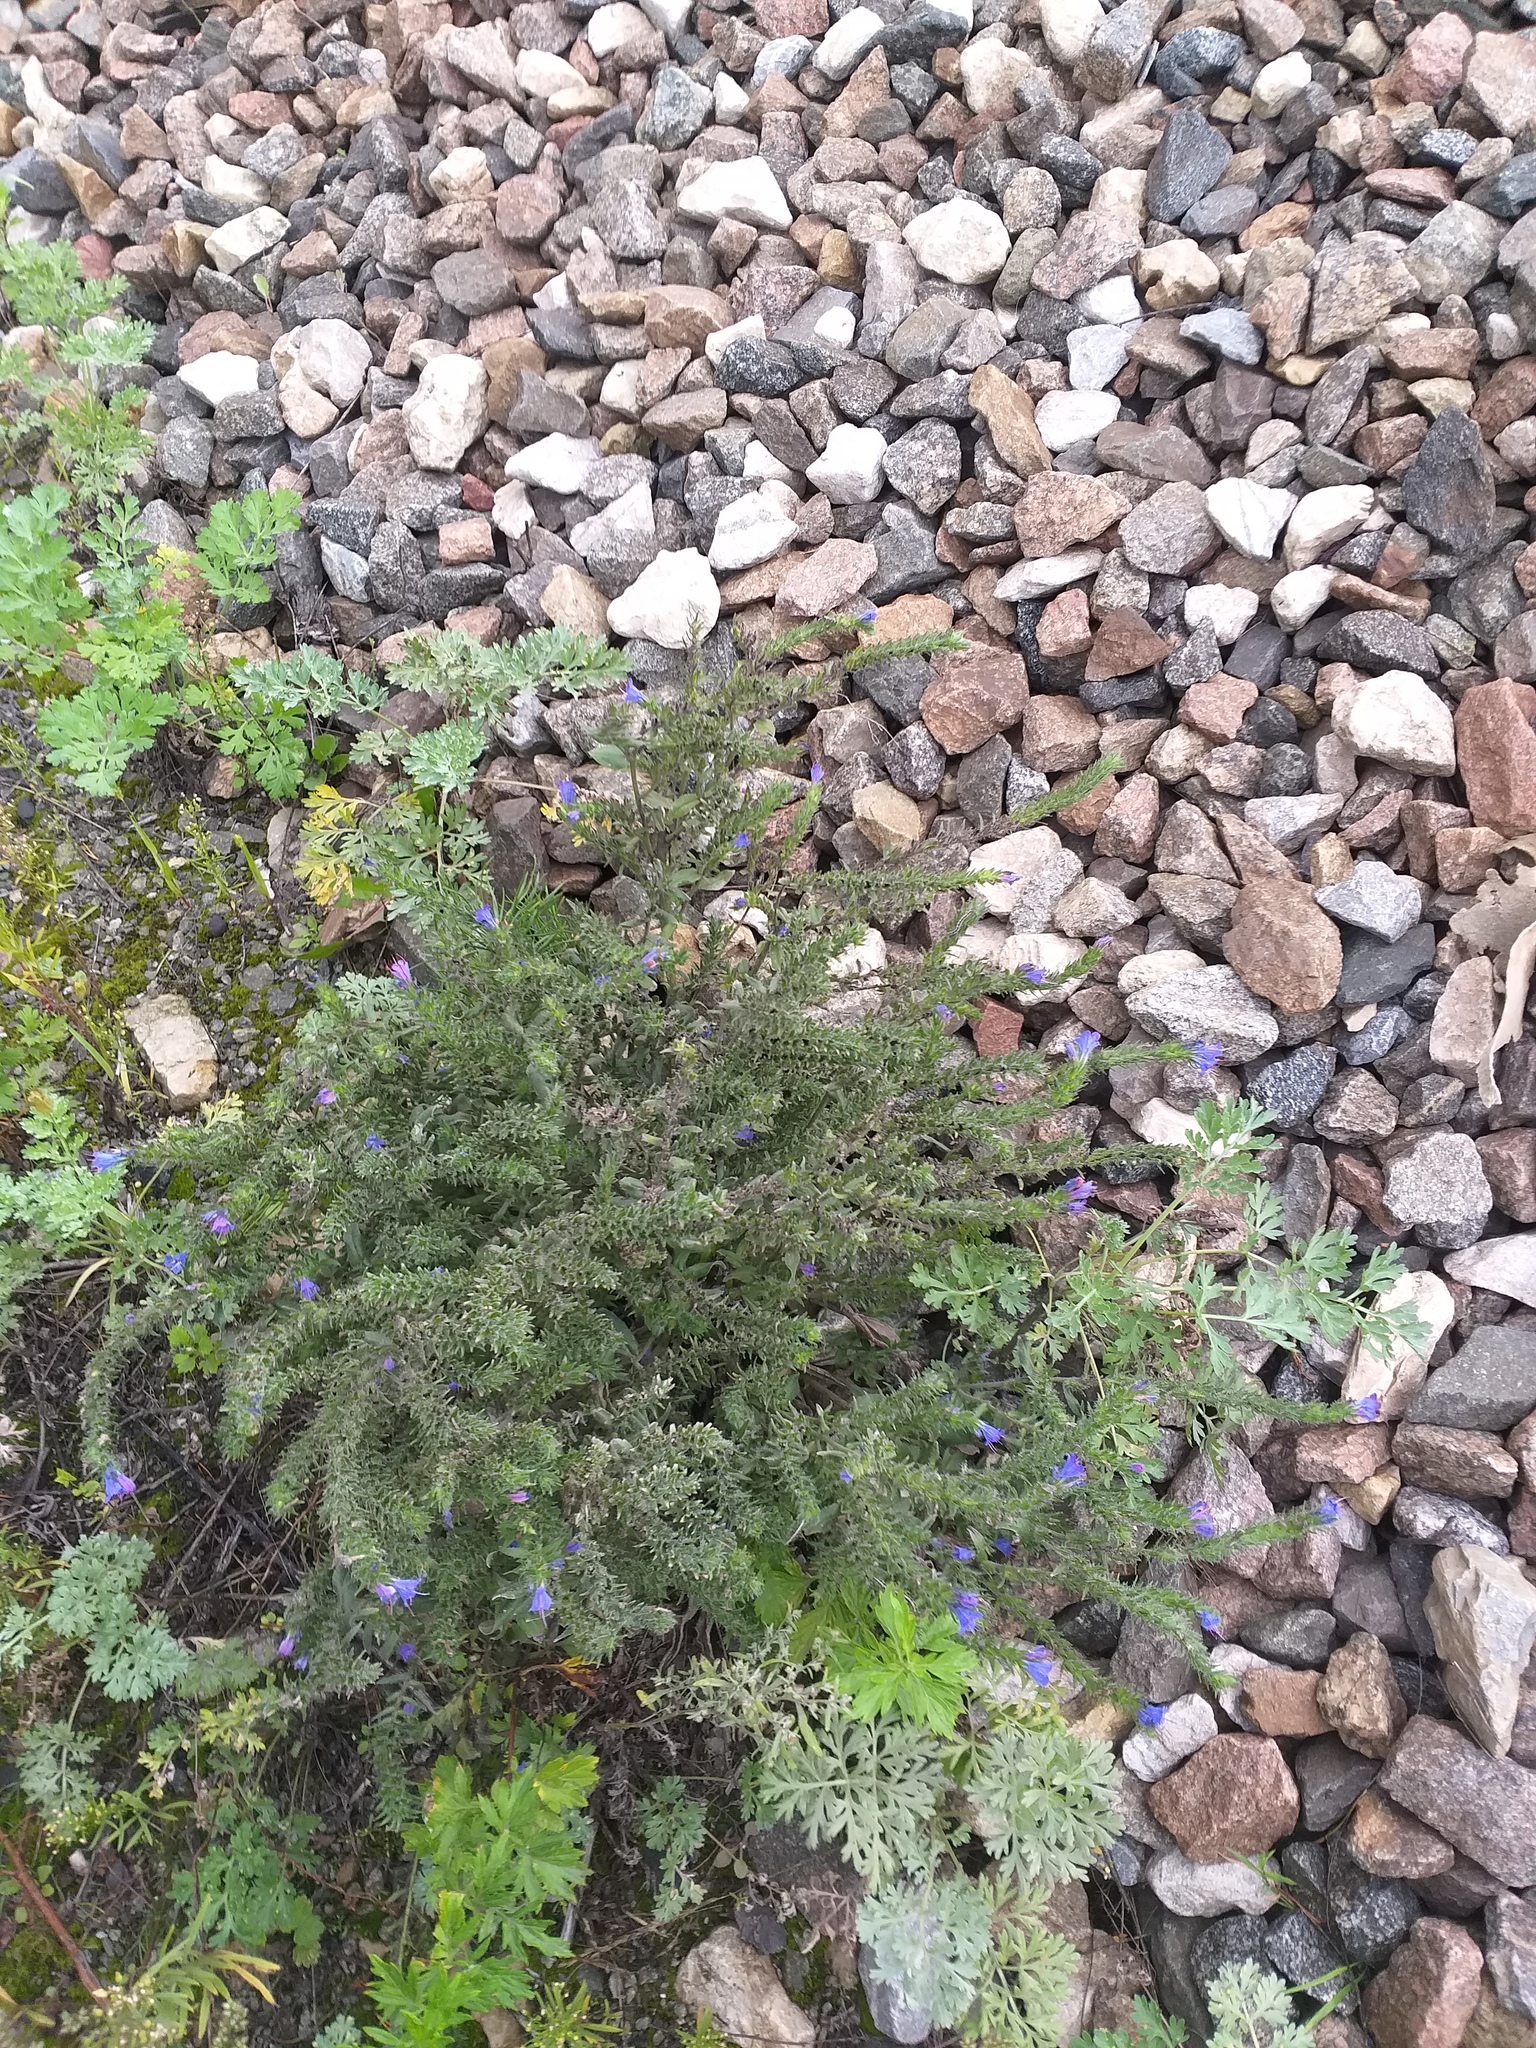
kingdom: Plantae
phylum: Tracheophyta
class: Magnoliopsida
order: Boraginales
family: Boraginaceae
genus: Echium
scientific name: Echium vulgare
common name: Common viper's bugloss
